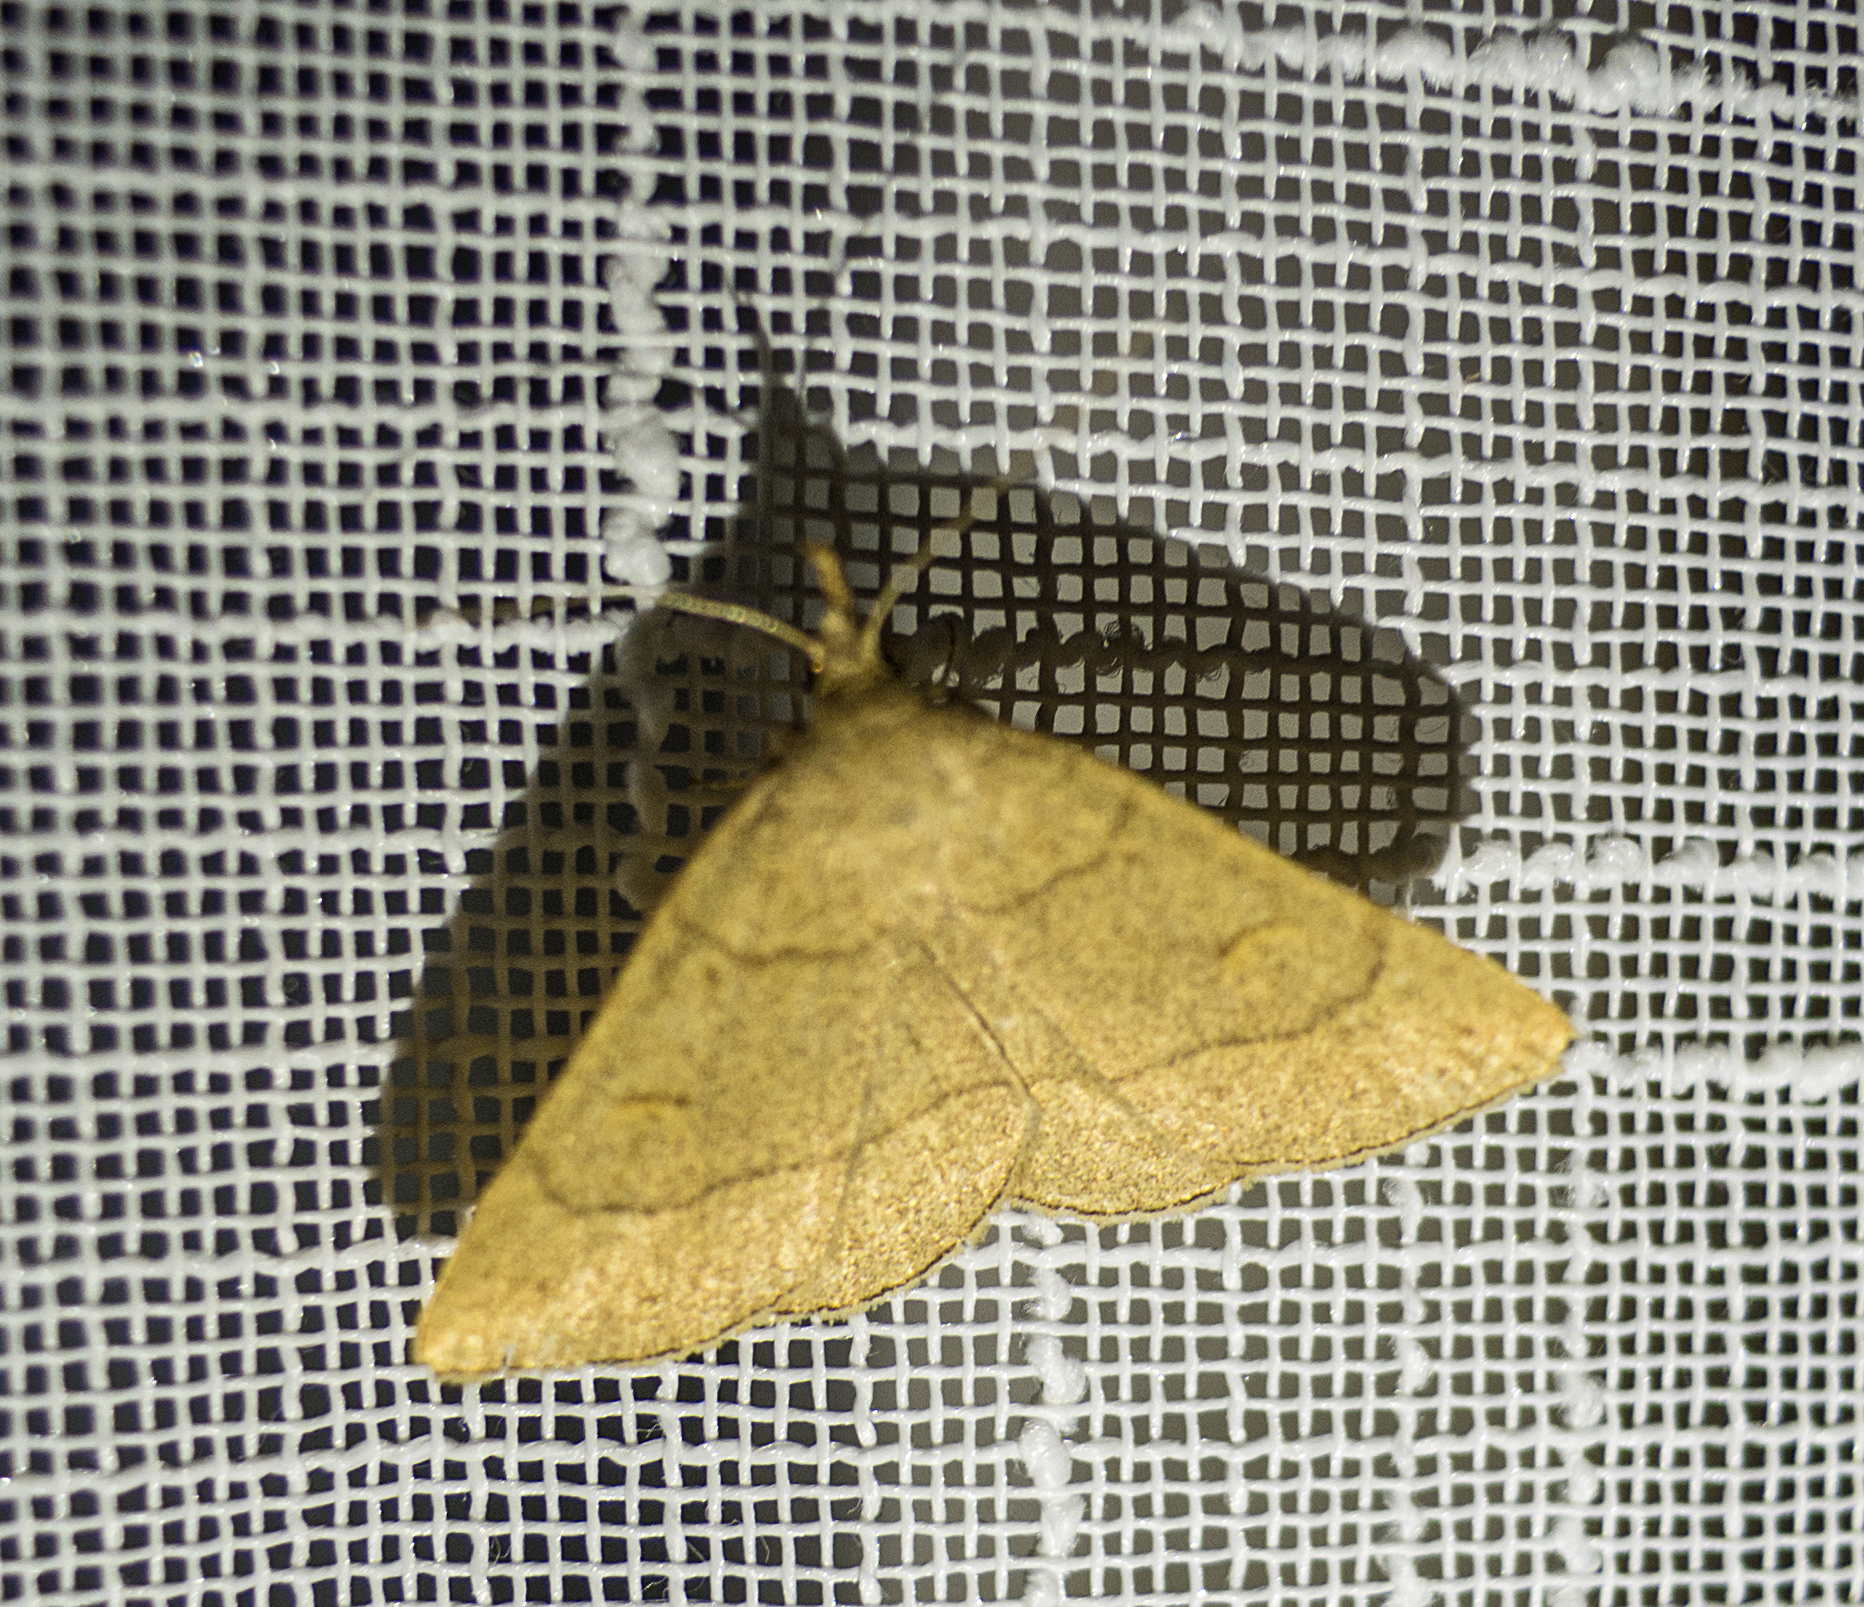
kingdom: Animalia
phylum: Arthropoda
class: Insecta
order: Lepidoptera
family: Erebidae
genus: Paracolax
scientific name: Paracolax tristalis
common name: Clay fan-foot
